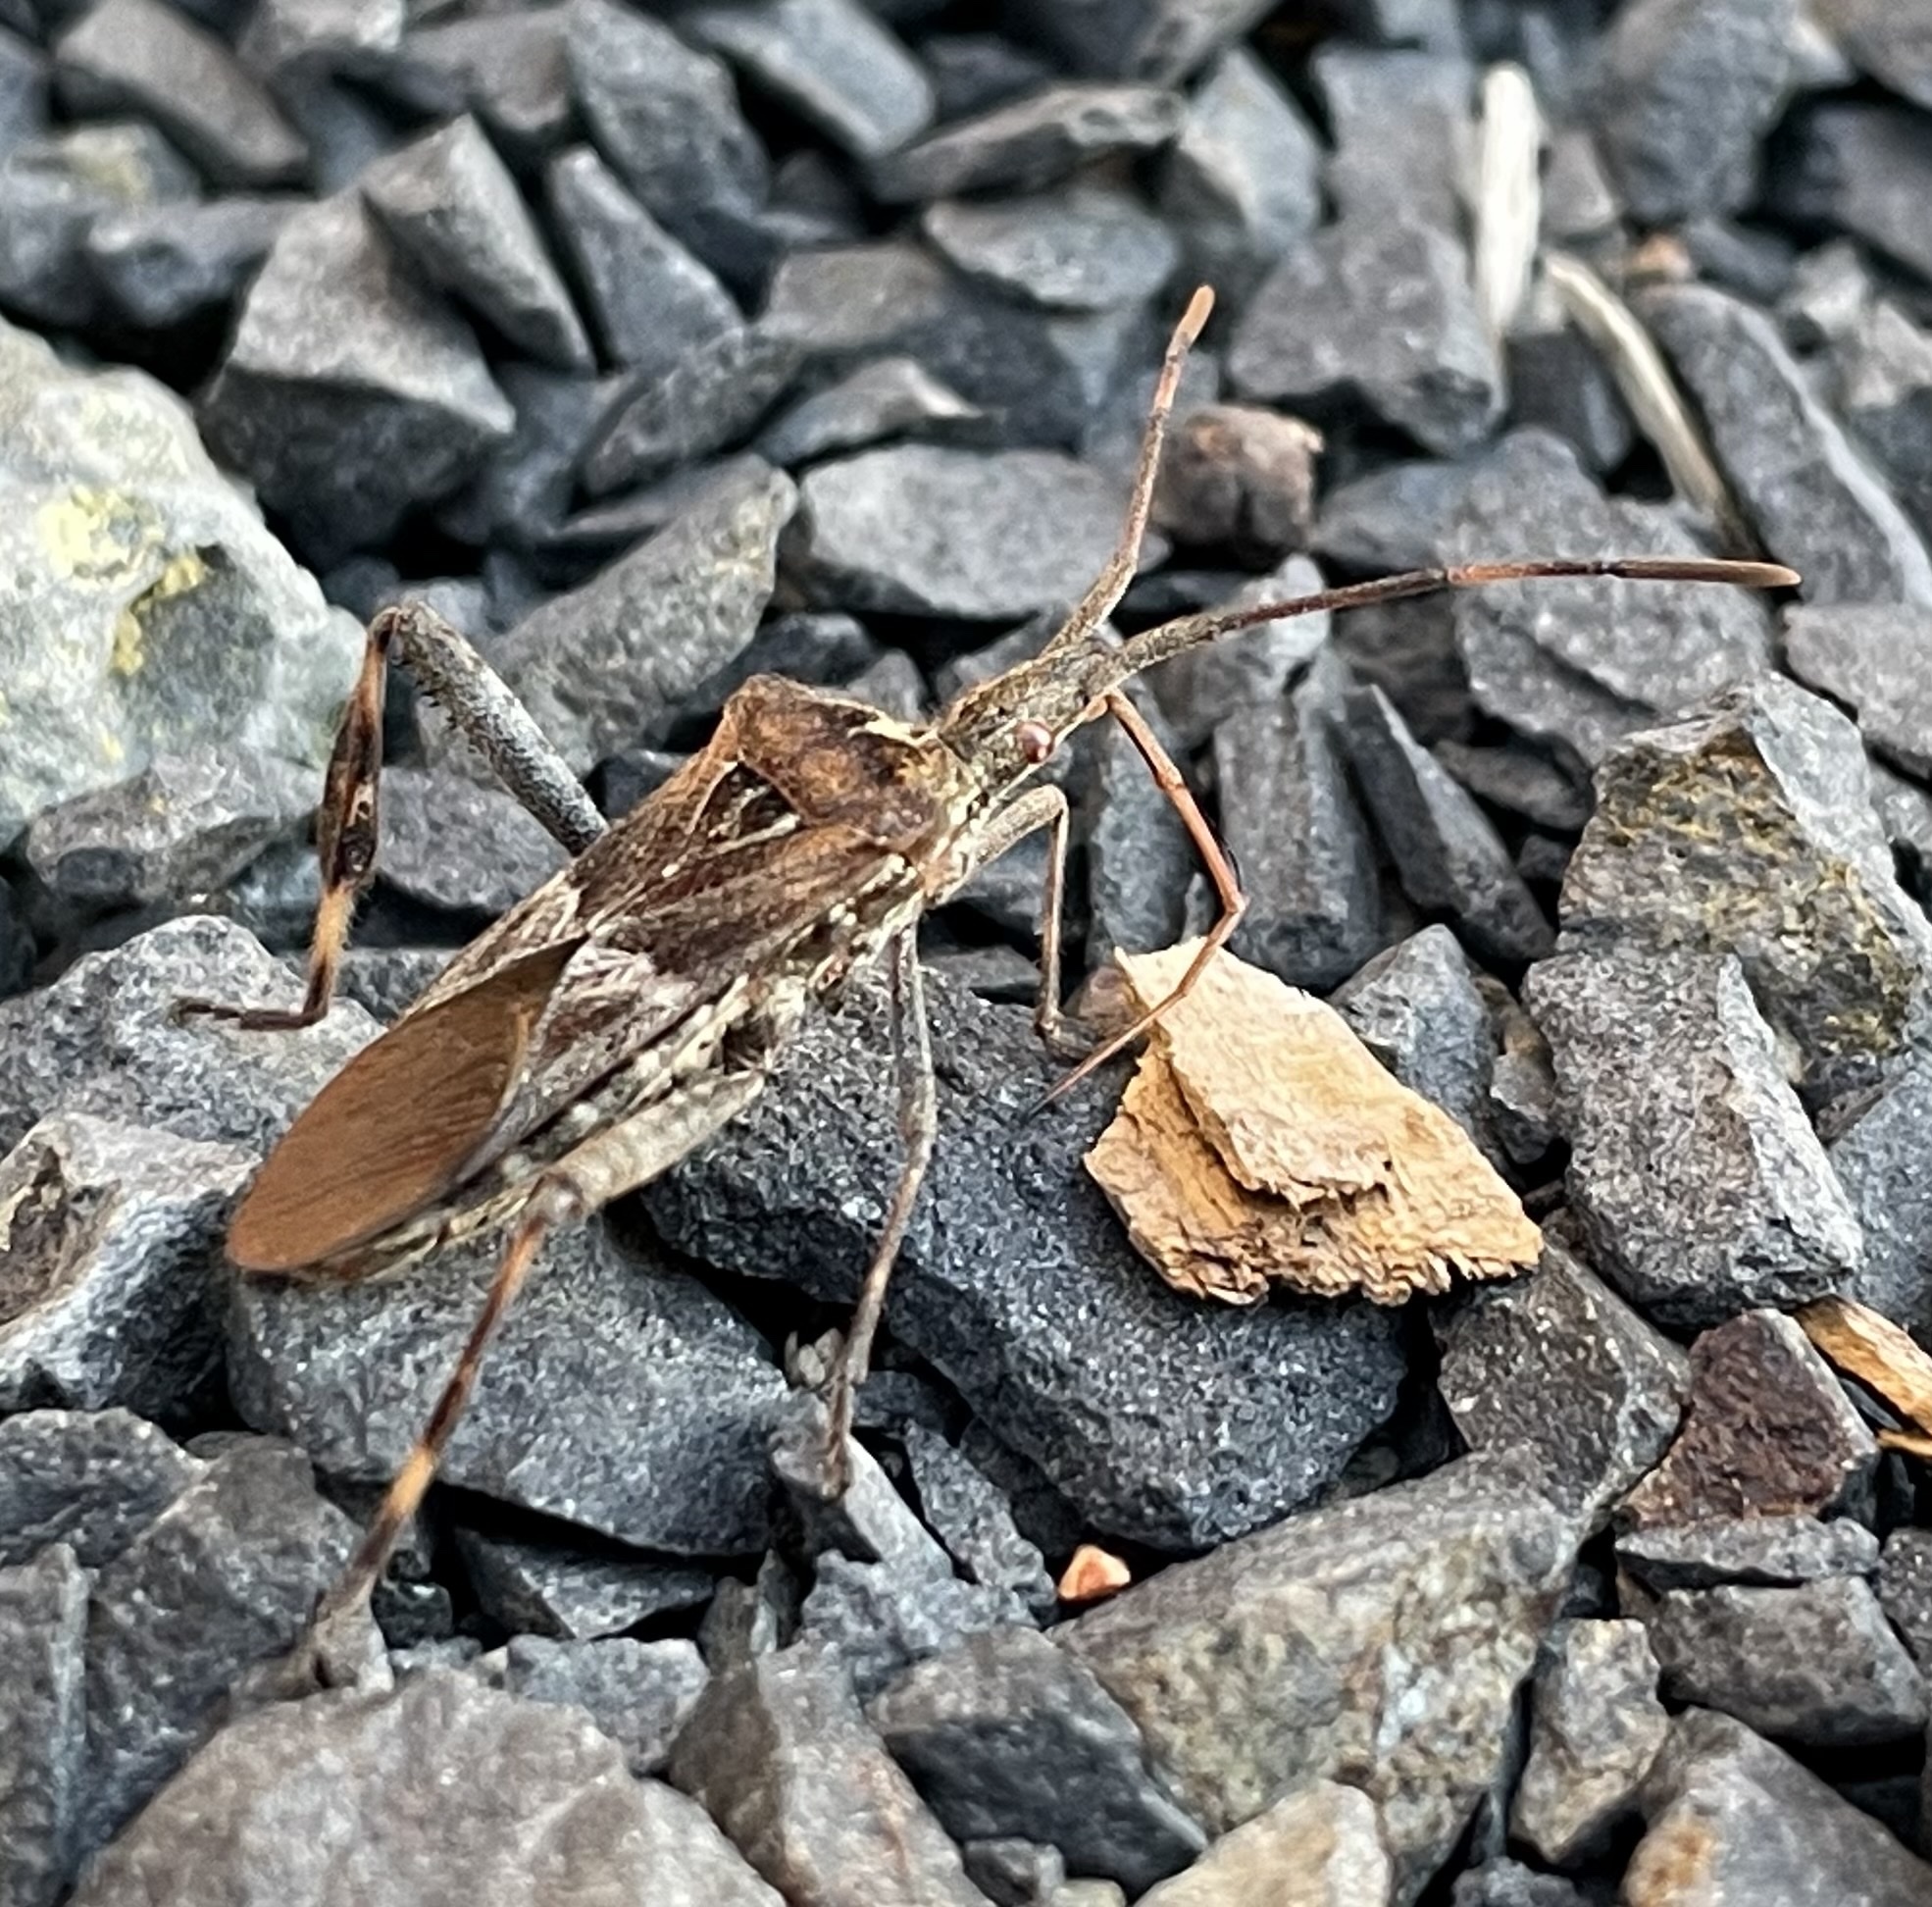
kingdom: Animalia
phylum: Arthropoda
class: Insecta
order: Hemiptera
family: Coreidae
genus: Leptoglossus
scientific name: Leptoglossus occidentalis
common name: Western conifer-seed bug
